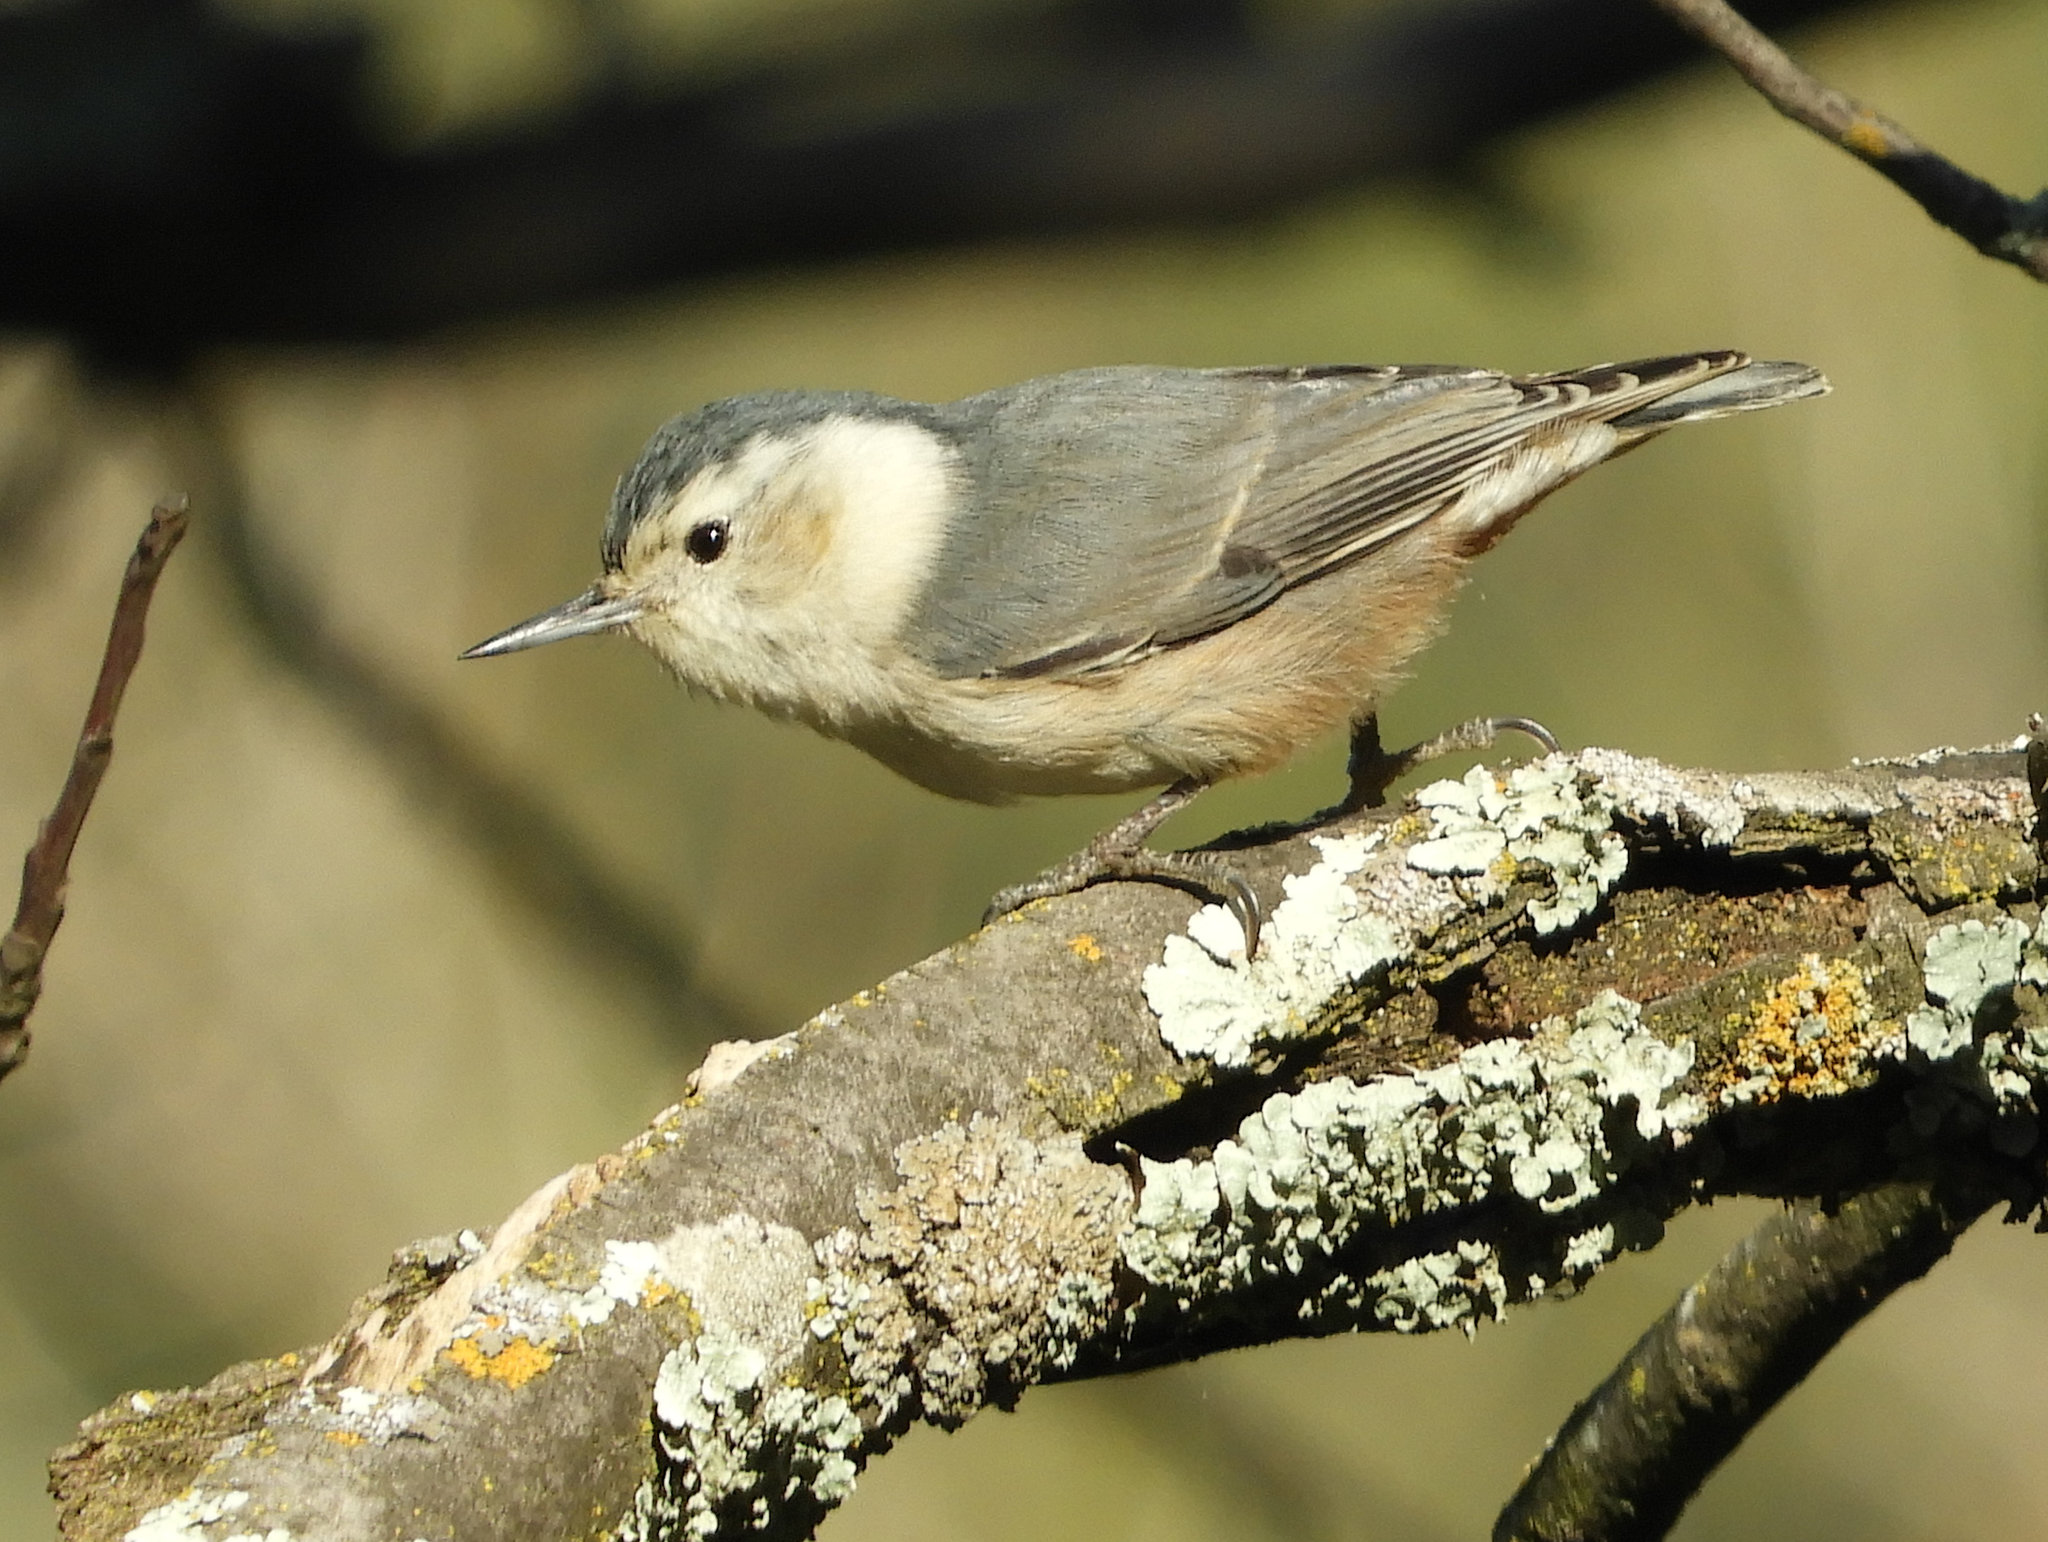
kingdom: Animalia
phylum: Chordata
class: Aves
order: Passeriformes
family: Sittidae
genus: Sitta
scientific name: Sitta carolinensis
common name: White-breasted nuthatch
